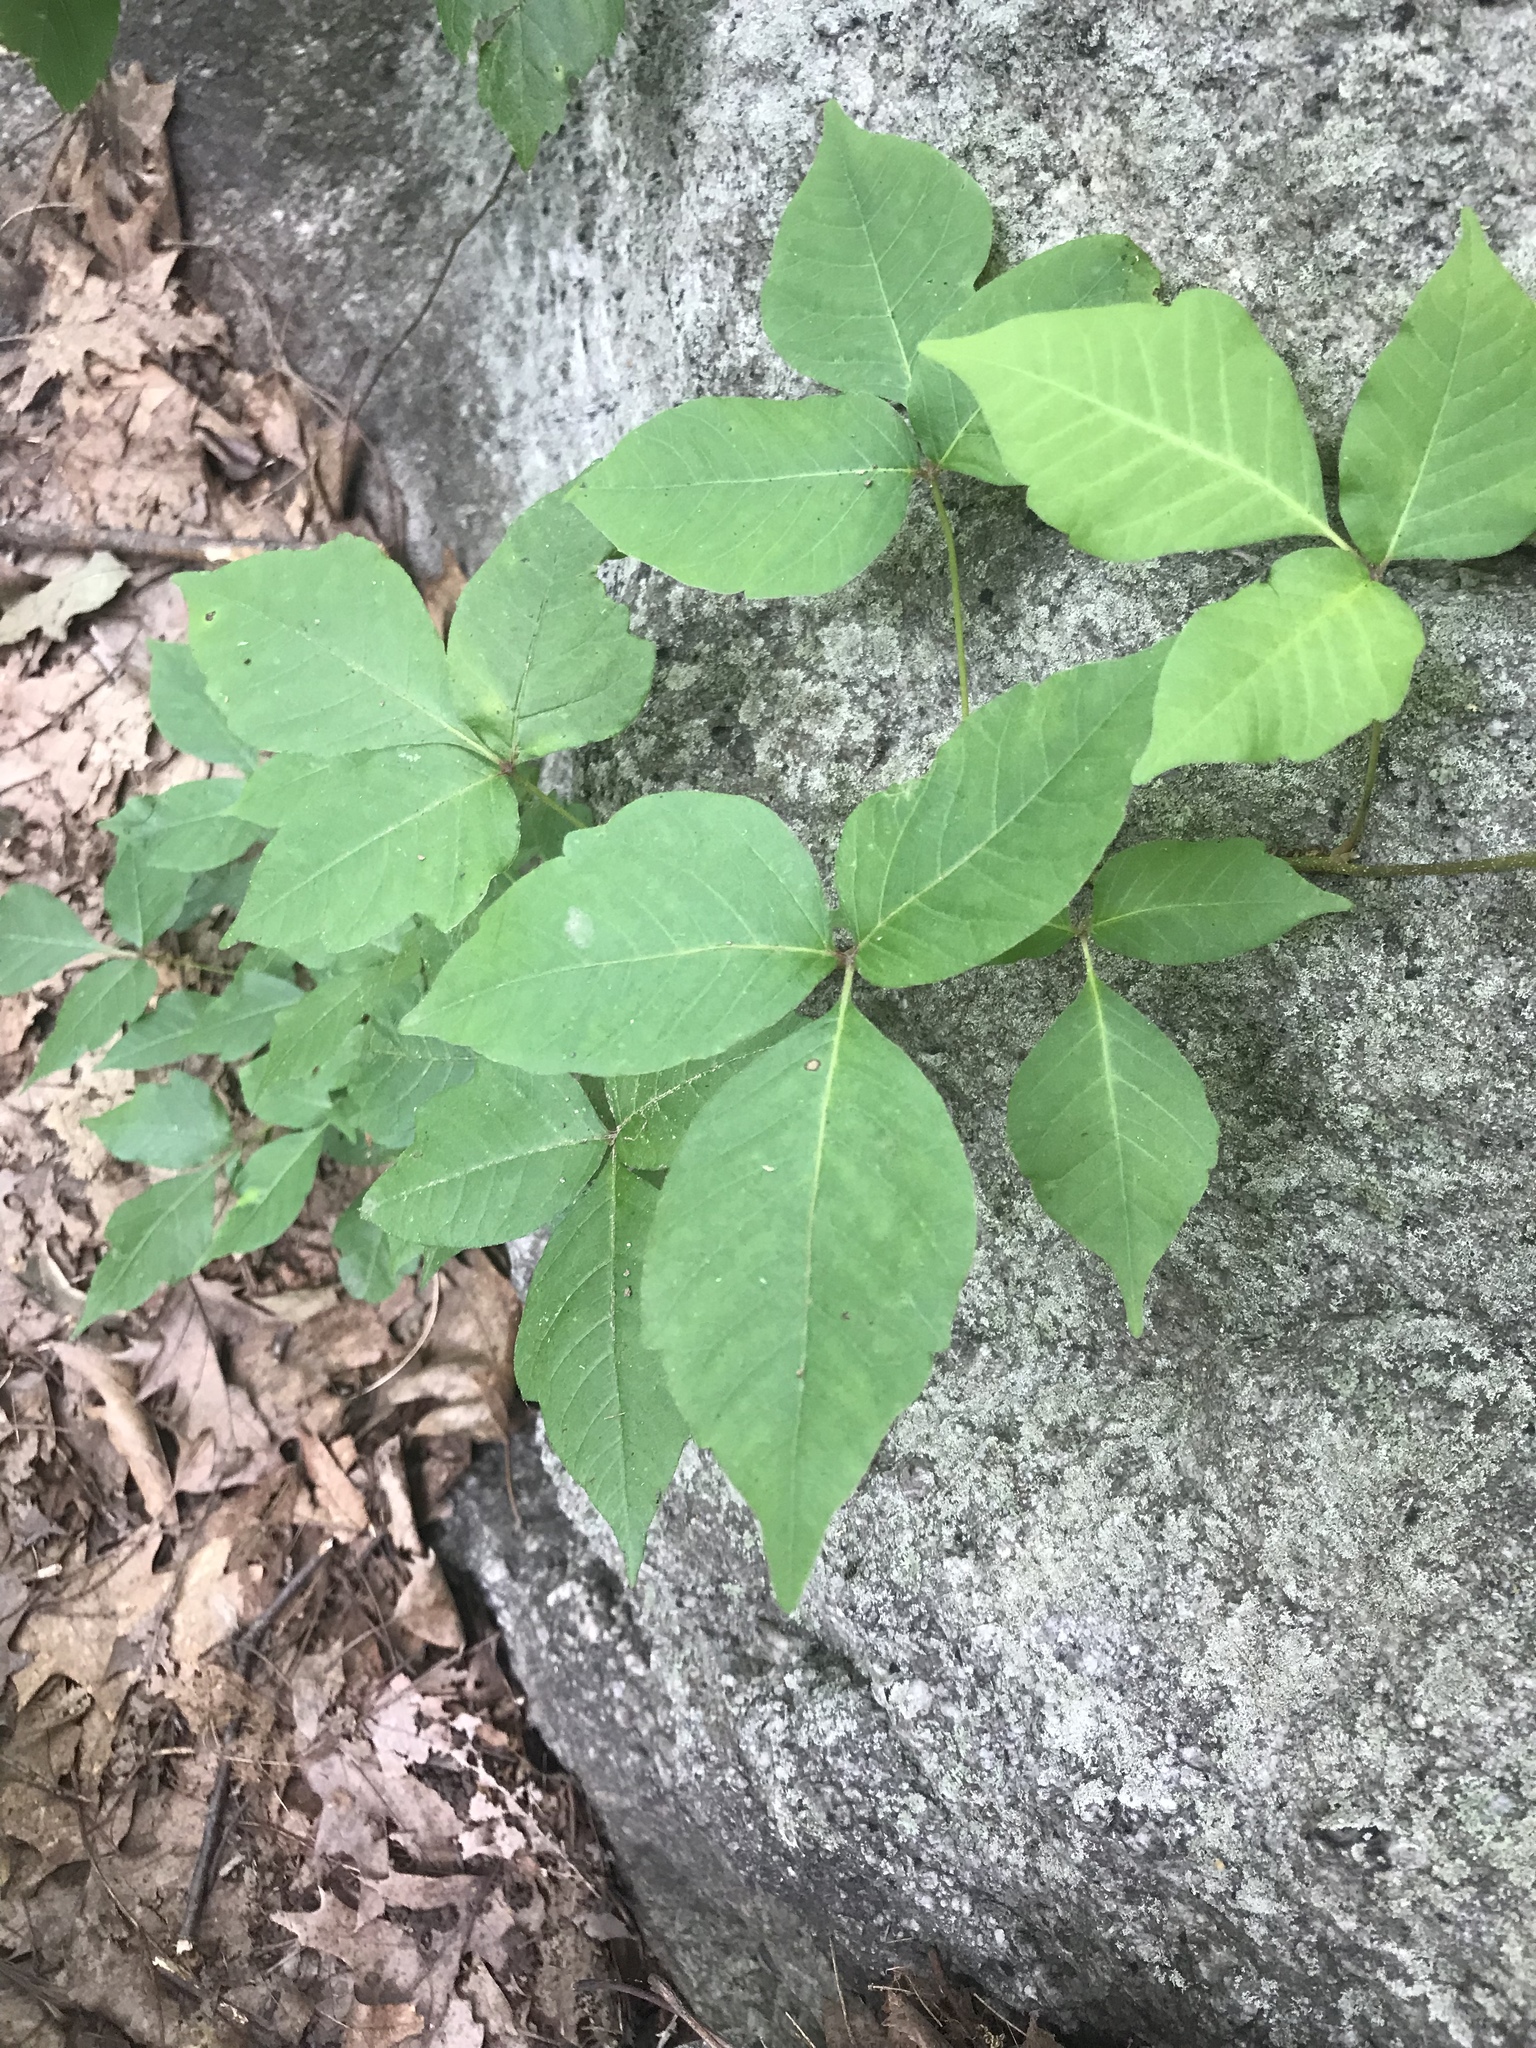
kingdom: Plantae
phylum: Tracheophyta
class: Magnoliopsida
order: Sapindales
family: Anacardiaceae
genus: Toxicodendron
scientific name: Toxicodendron radicans
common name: Poison ivy
